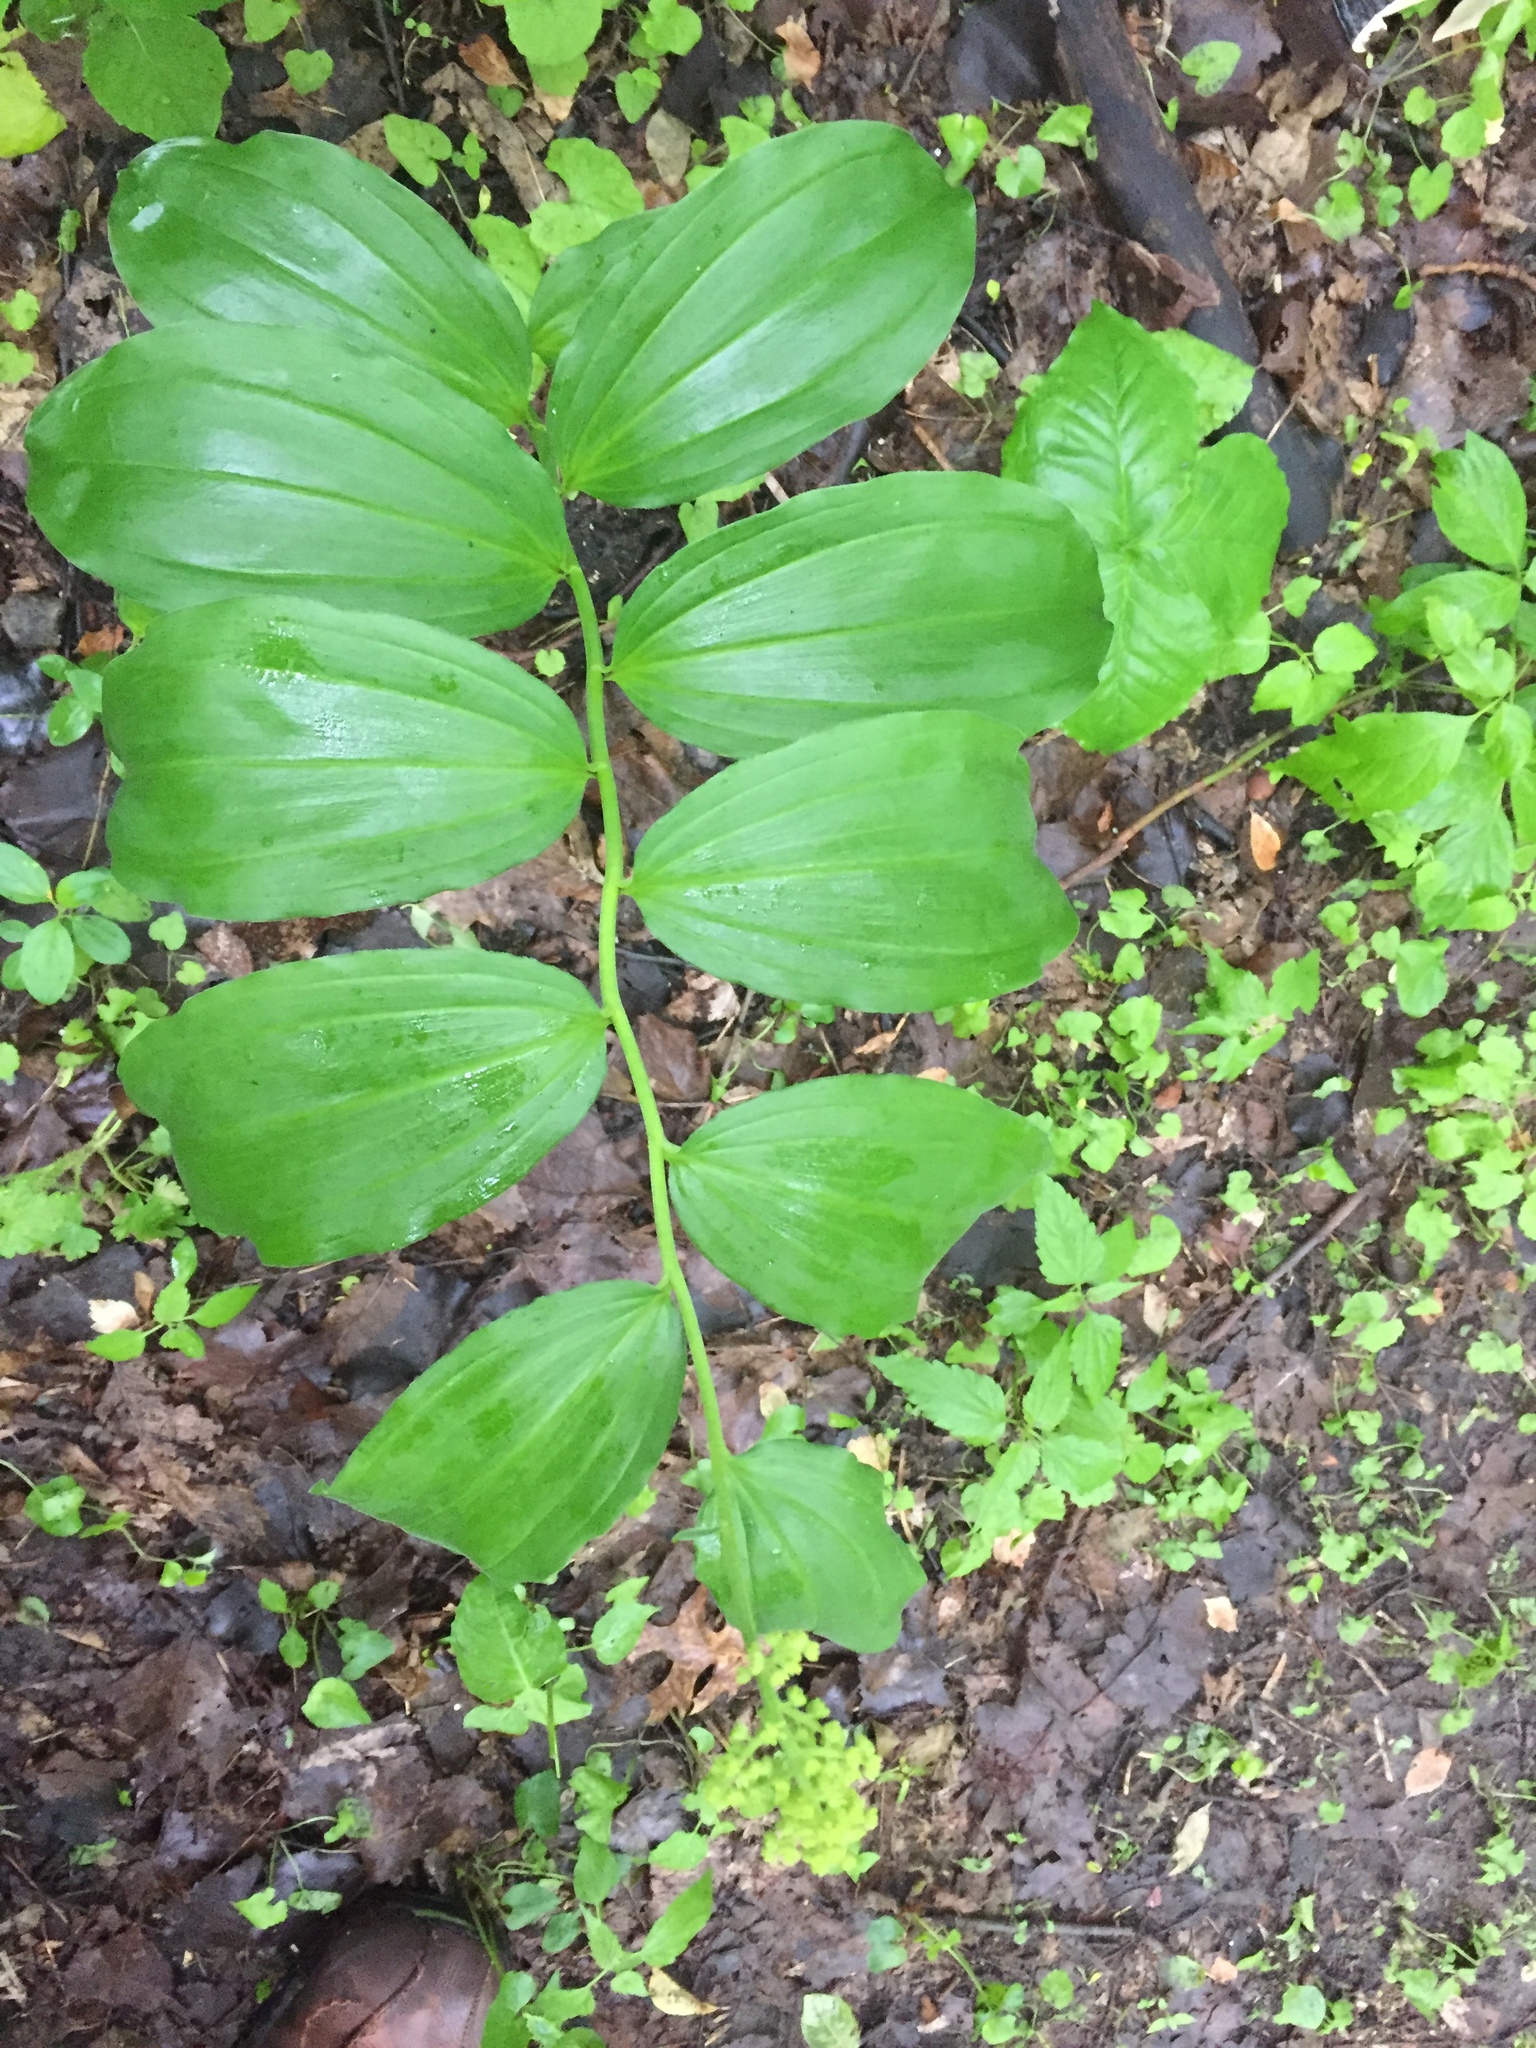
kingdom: Plantae
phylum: Tracheophyta
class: Liliopsida
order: Asparagales
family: Asparagaceae
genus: Maianthemum
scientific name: Maianthemum racemosum
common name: False spikenard
